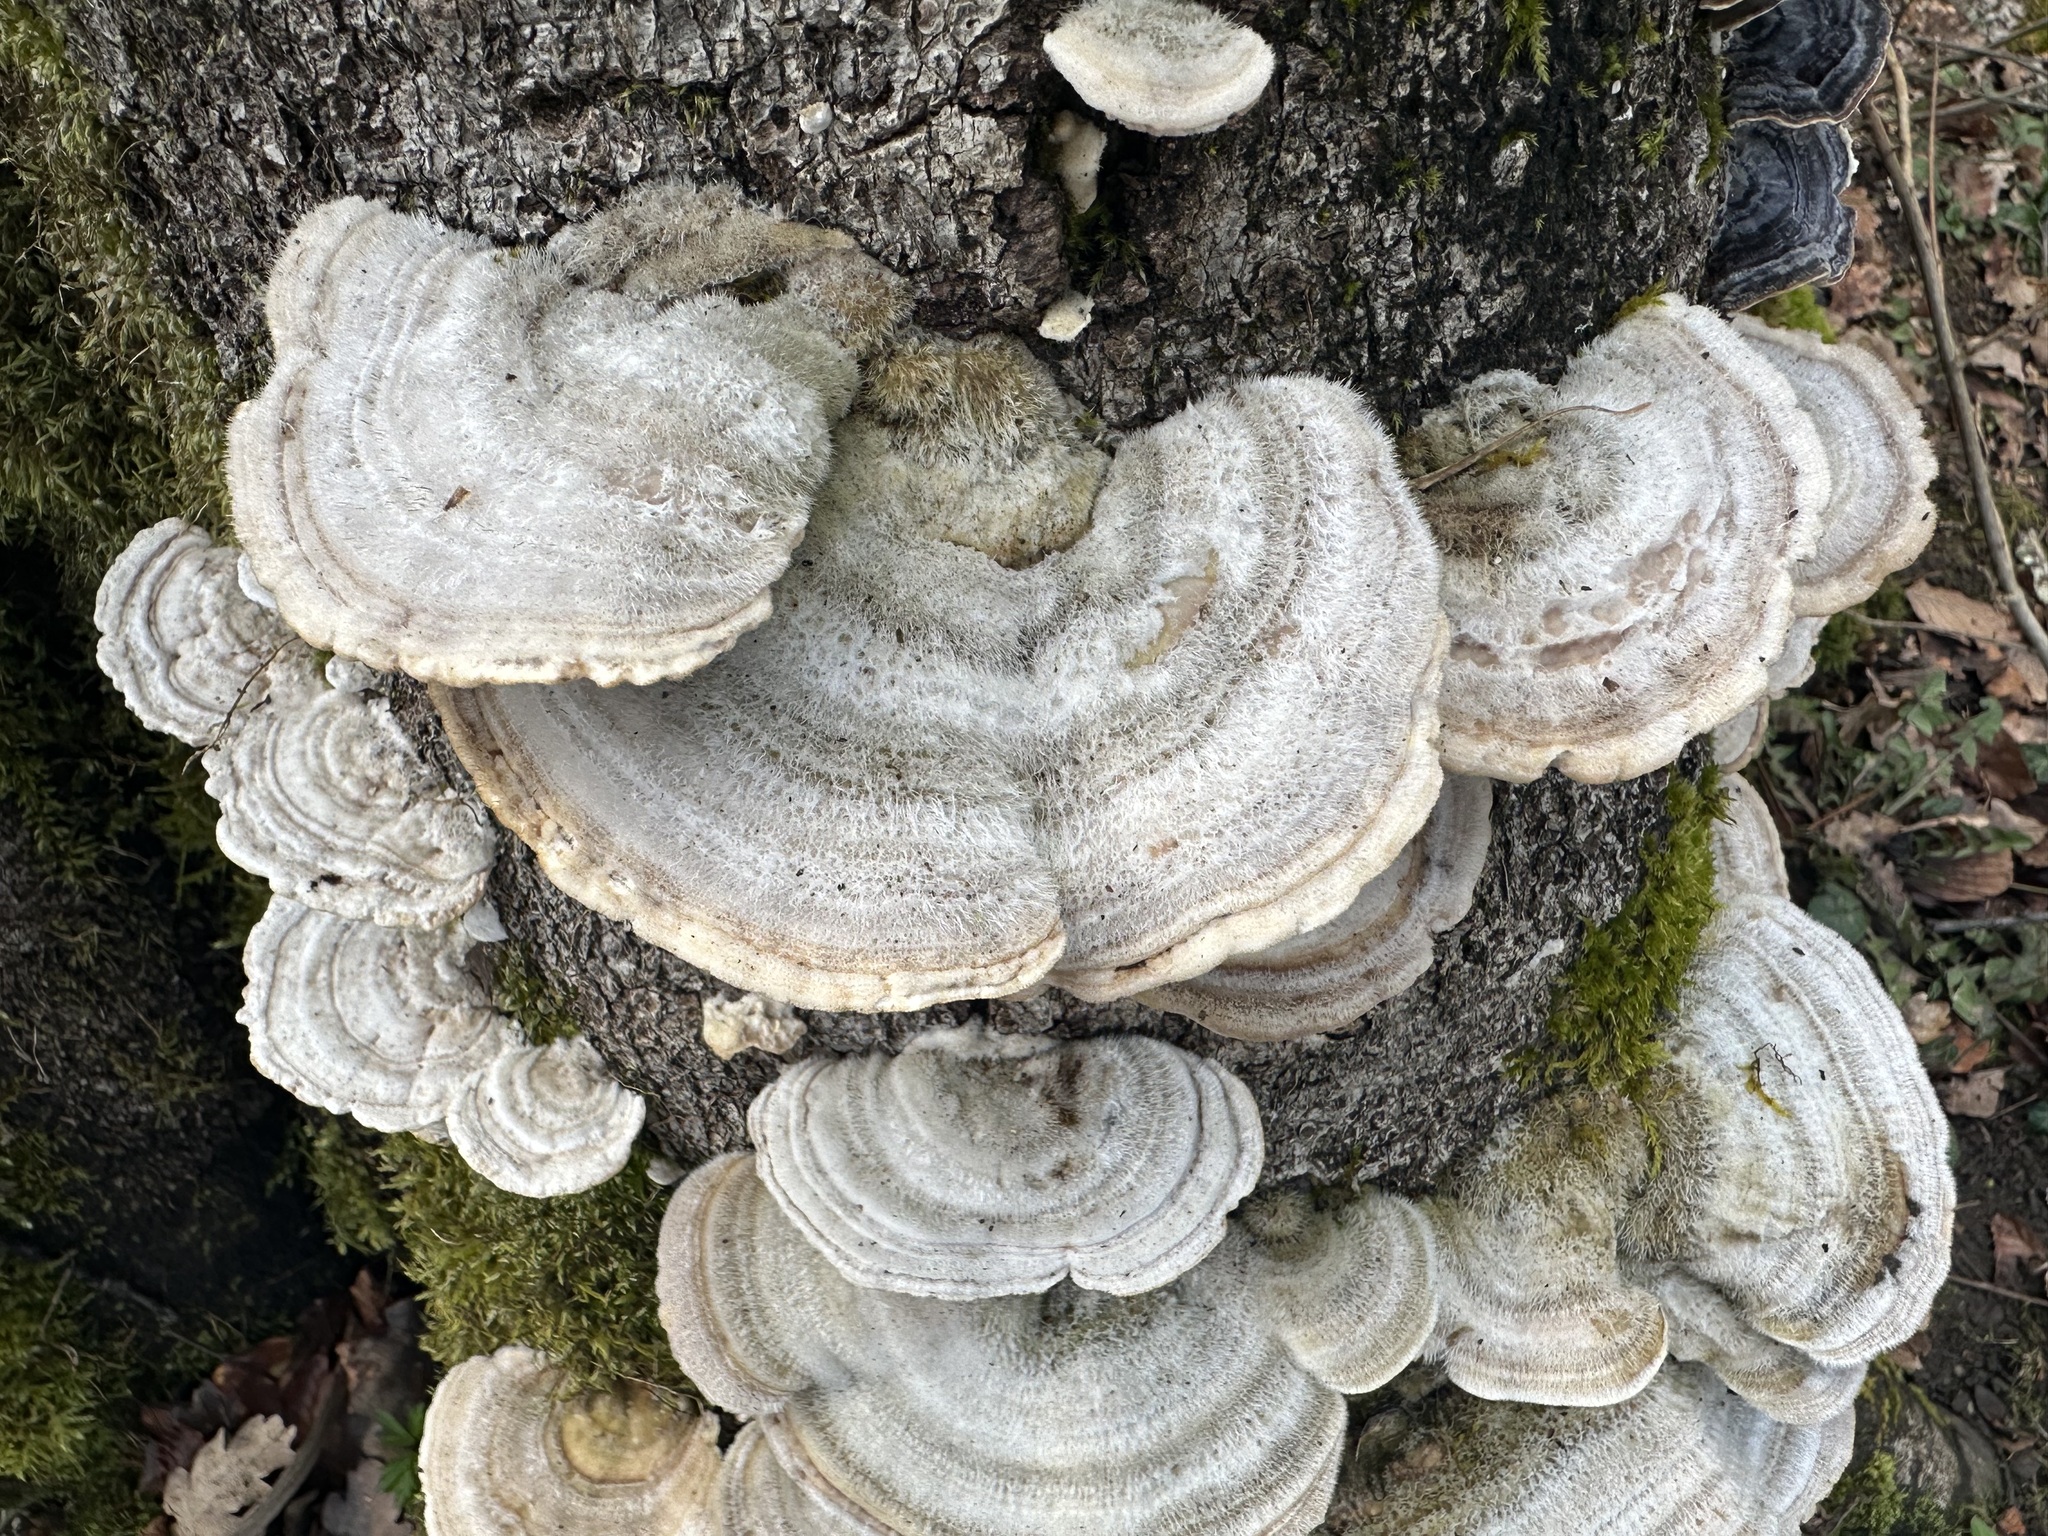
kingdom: Fungi
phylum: Basidiomycota
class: Agaricomycetes
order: Polyporales
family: Polyporaceae
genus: Trametes
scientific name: Trametes hirsuta
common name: Hairy bracket
